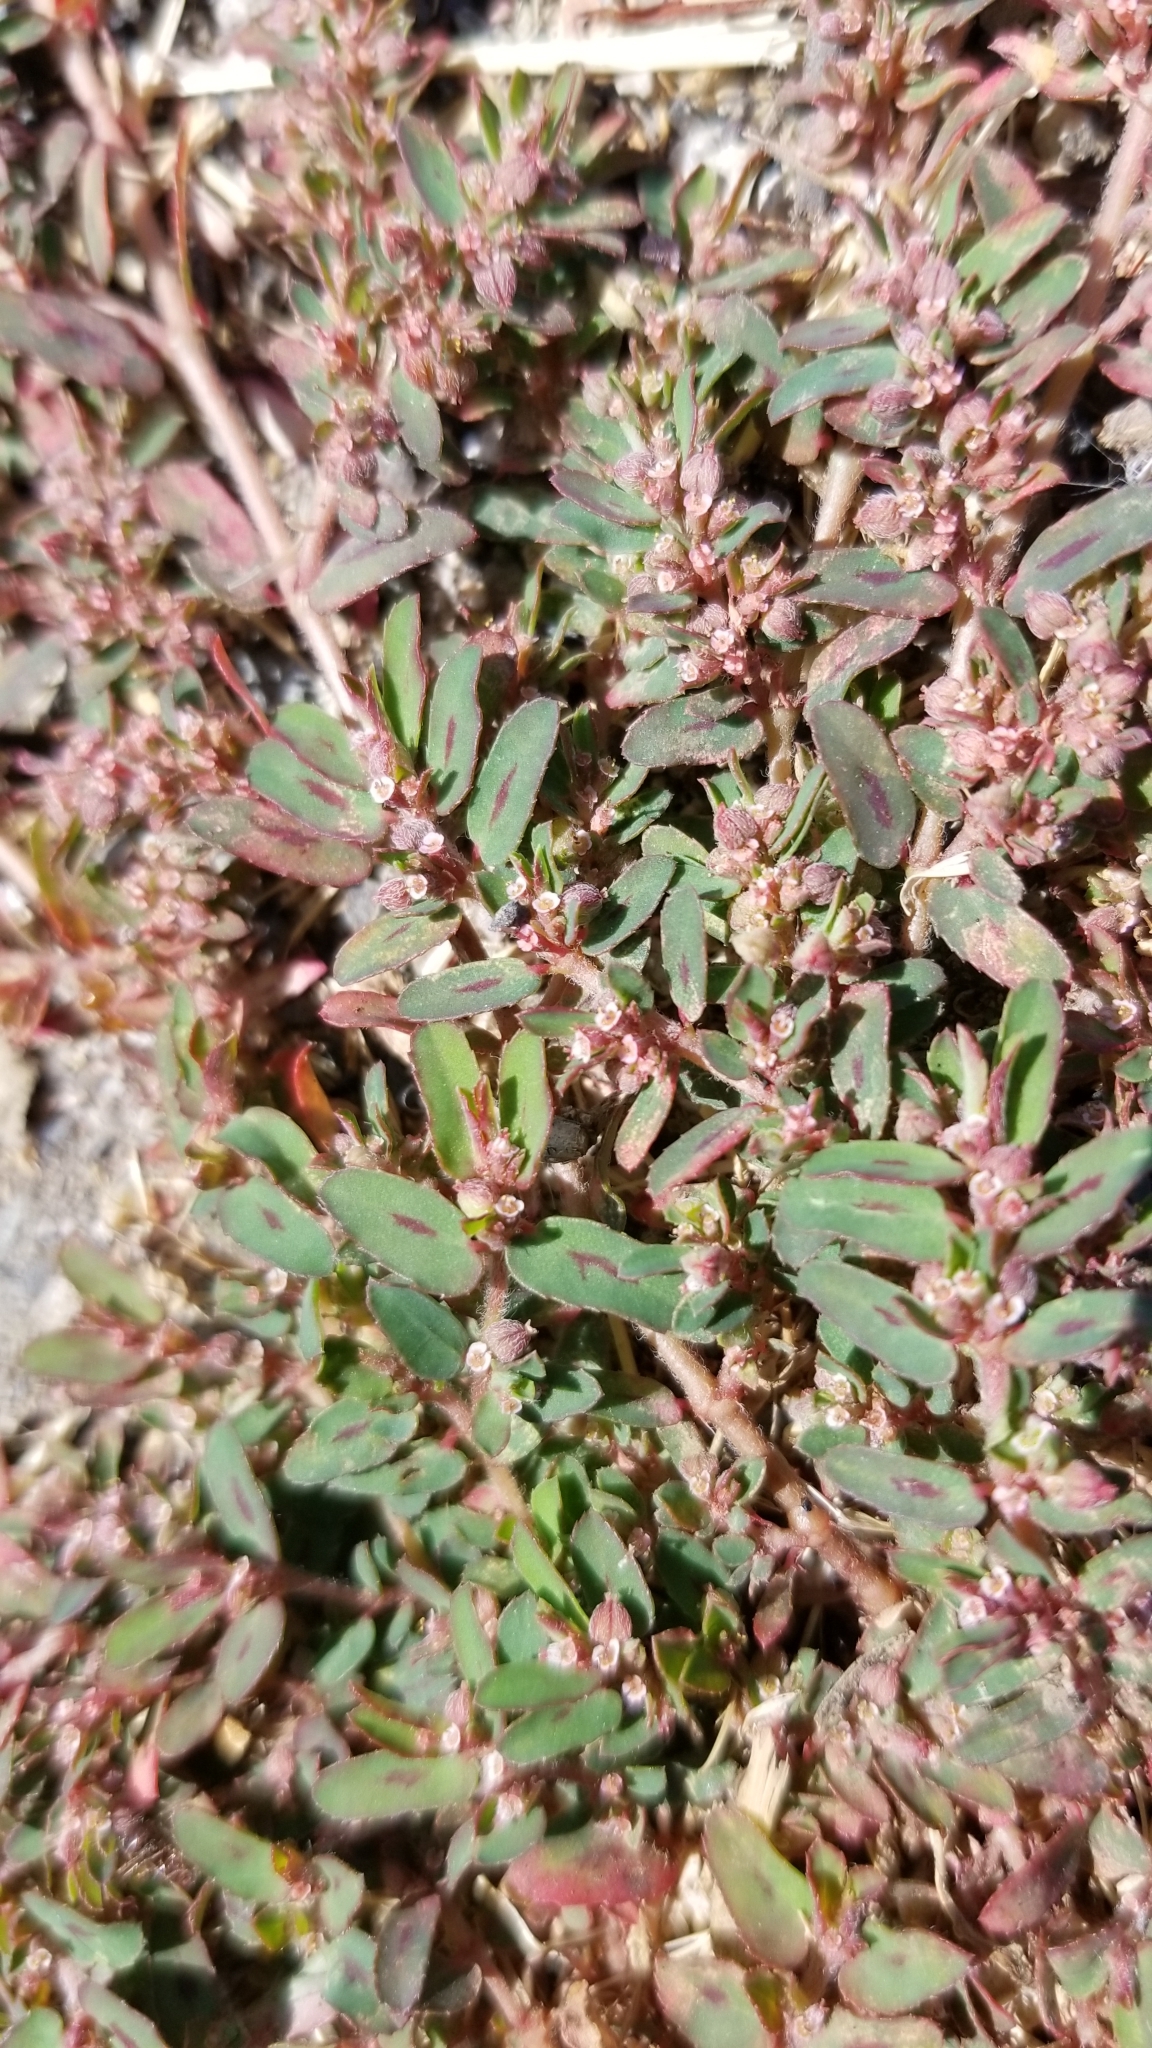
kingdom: Plantae
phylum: Tracheophyta
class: Magnoliopsida
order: Malpighiales
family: Euphorbiaceae
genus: Euphorbia
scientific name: Euphorbia maculata
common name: Spotted spurge
